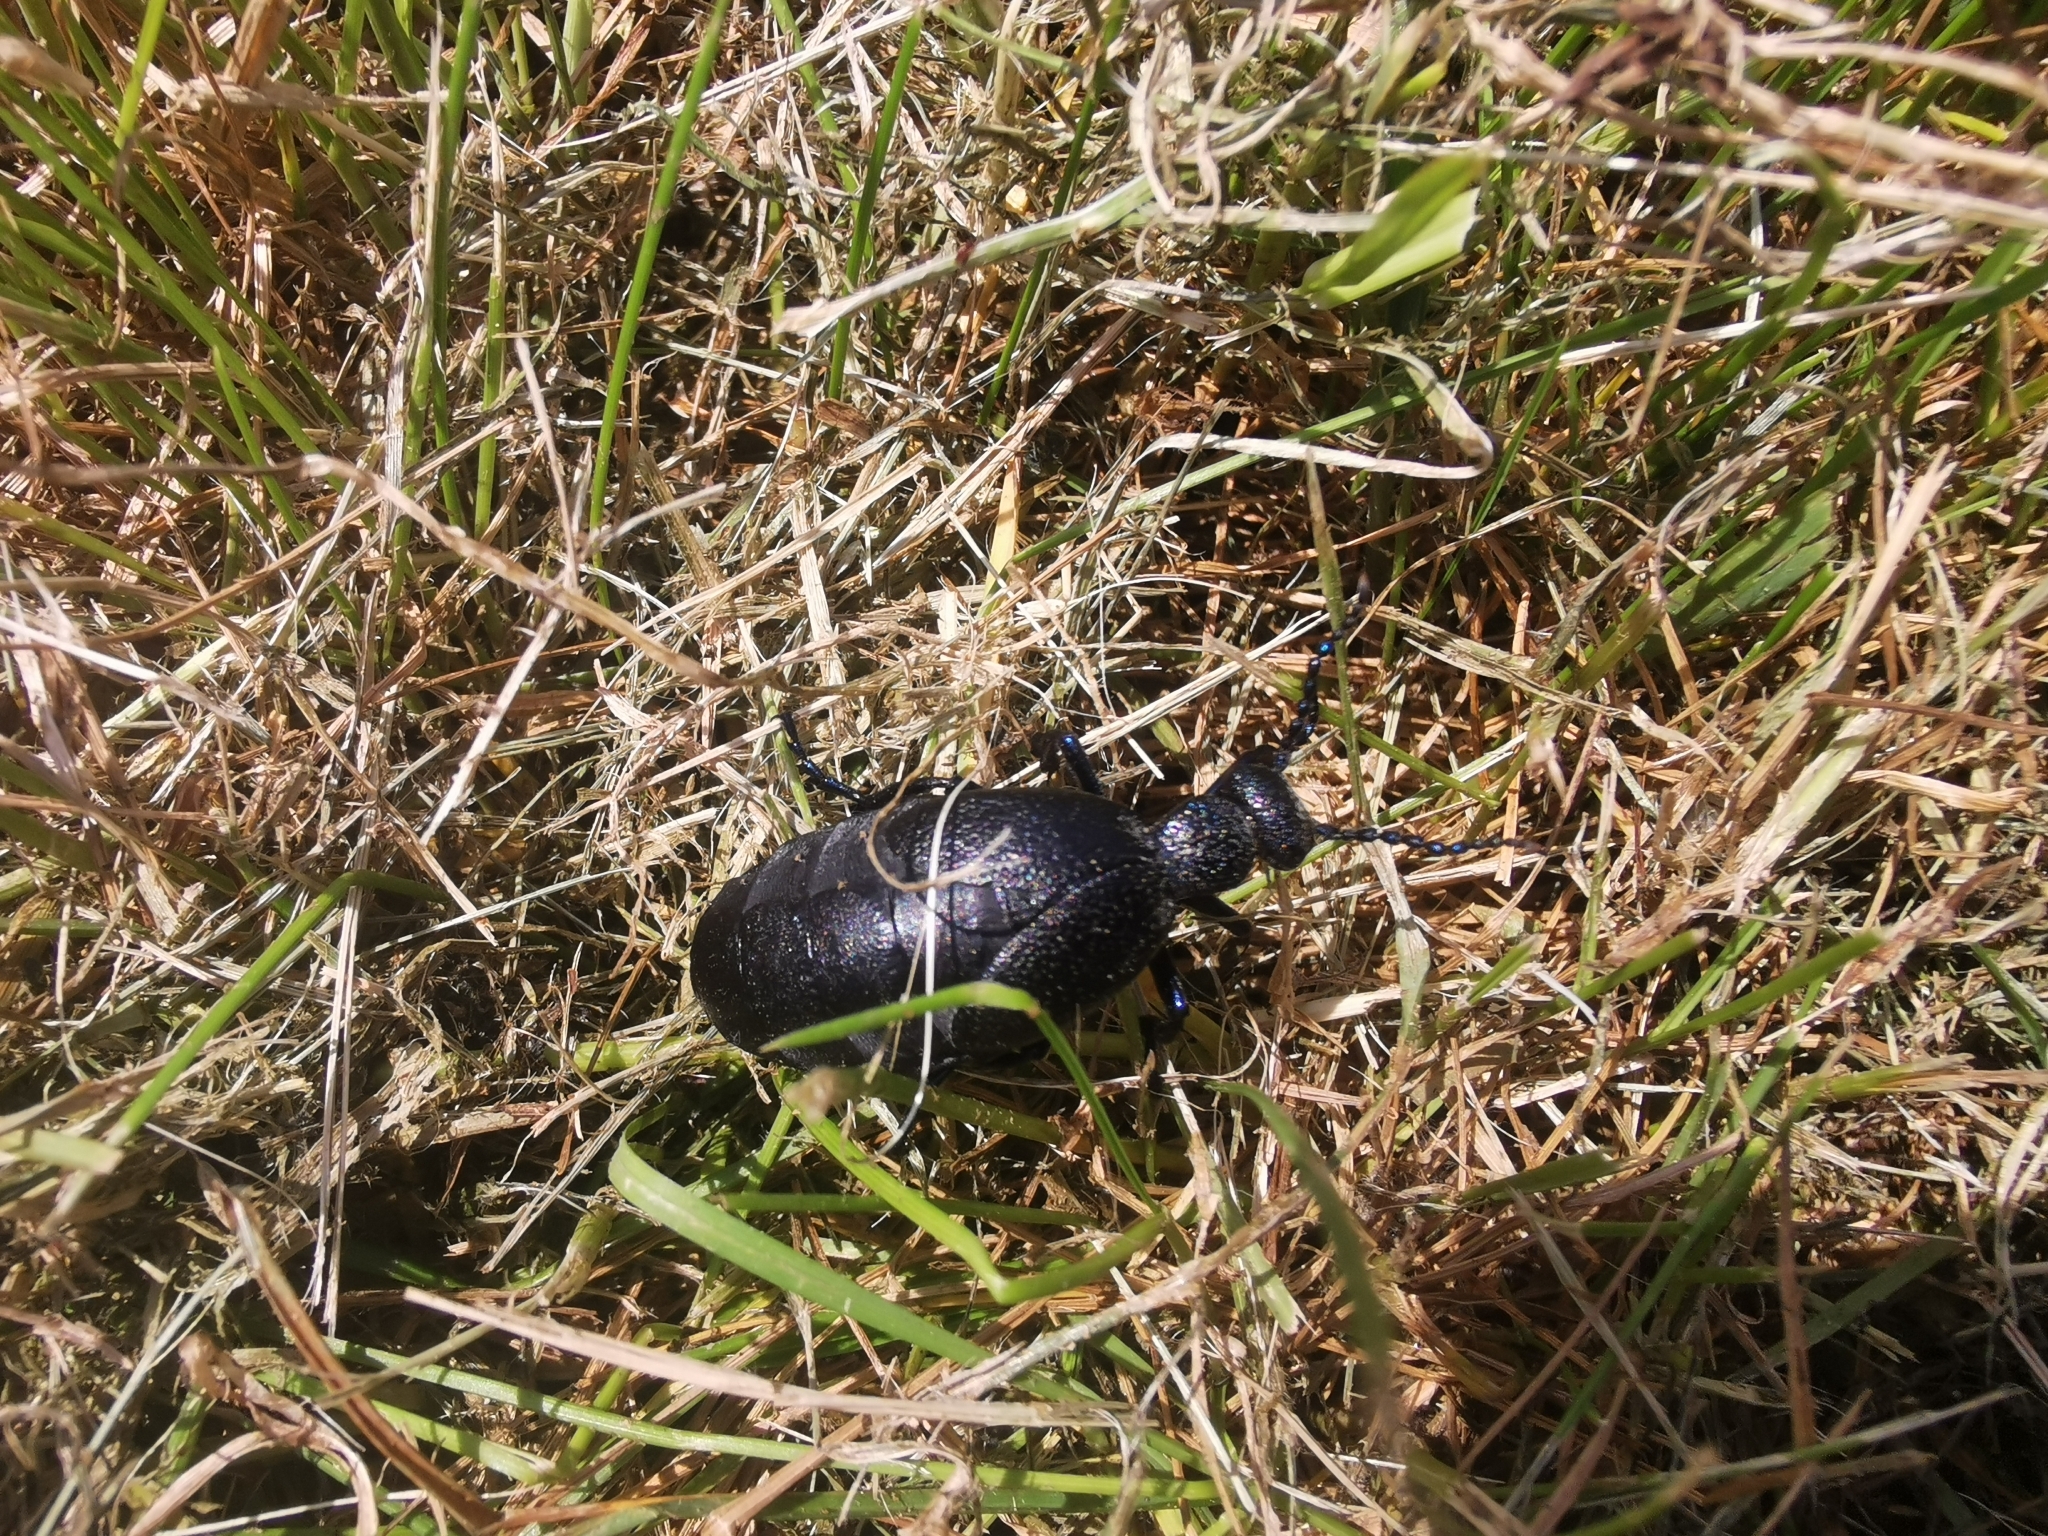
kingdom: Animalia
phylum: Arthropoda
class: Insecta
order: Coleoptera
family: Meloidae
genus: Meloe
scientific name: Meloe proscarabaeus
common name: Black oil-beetle
